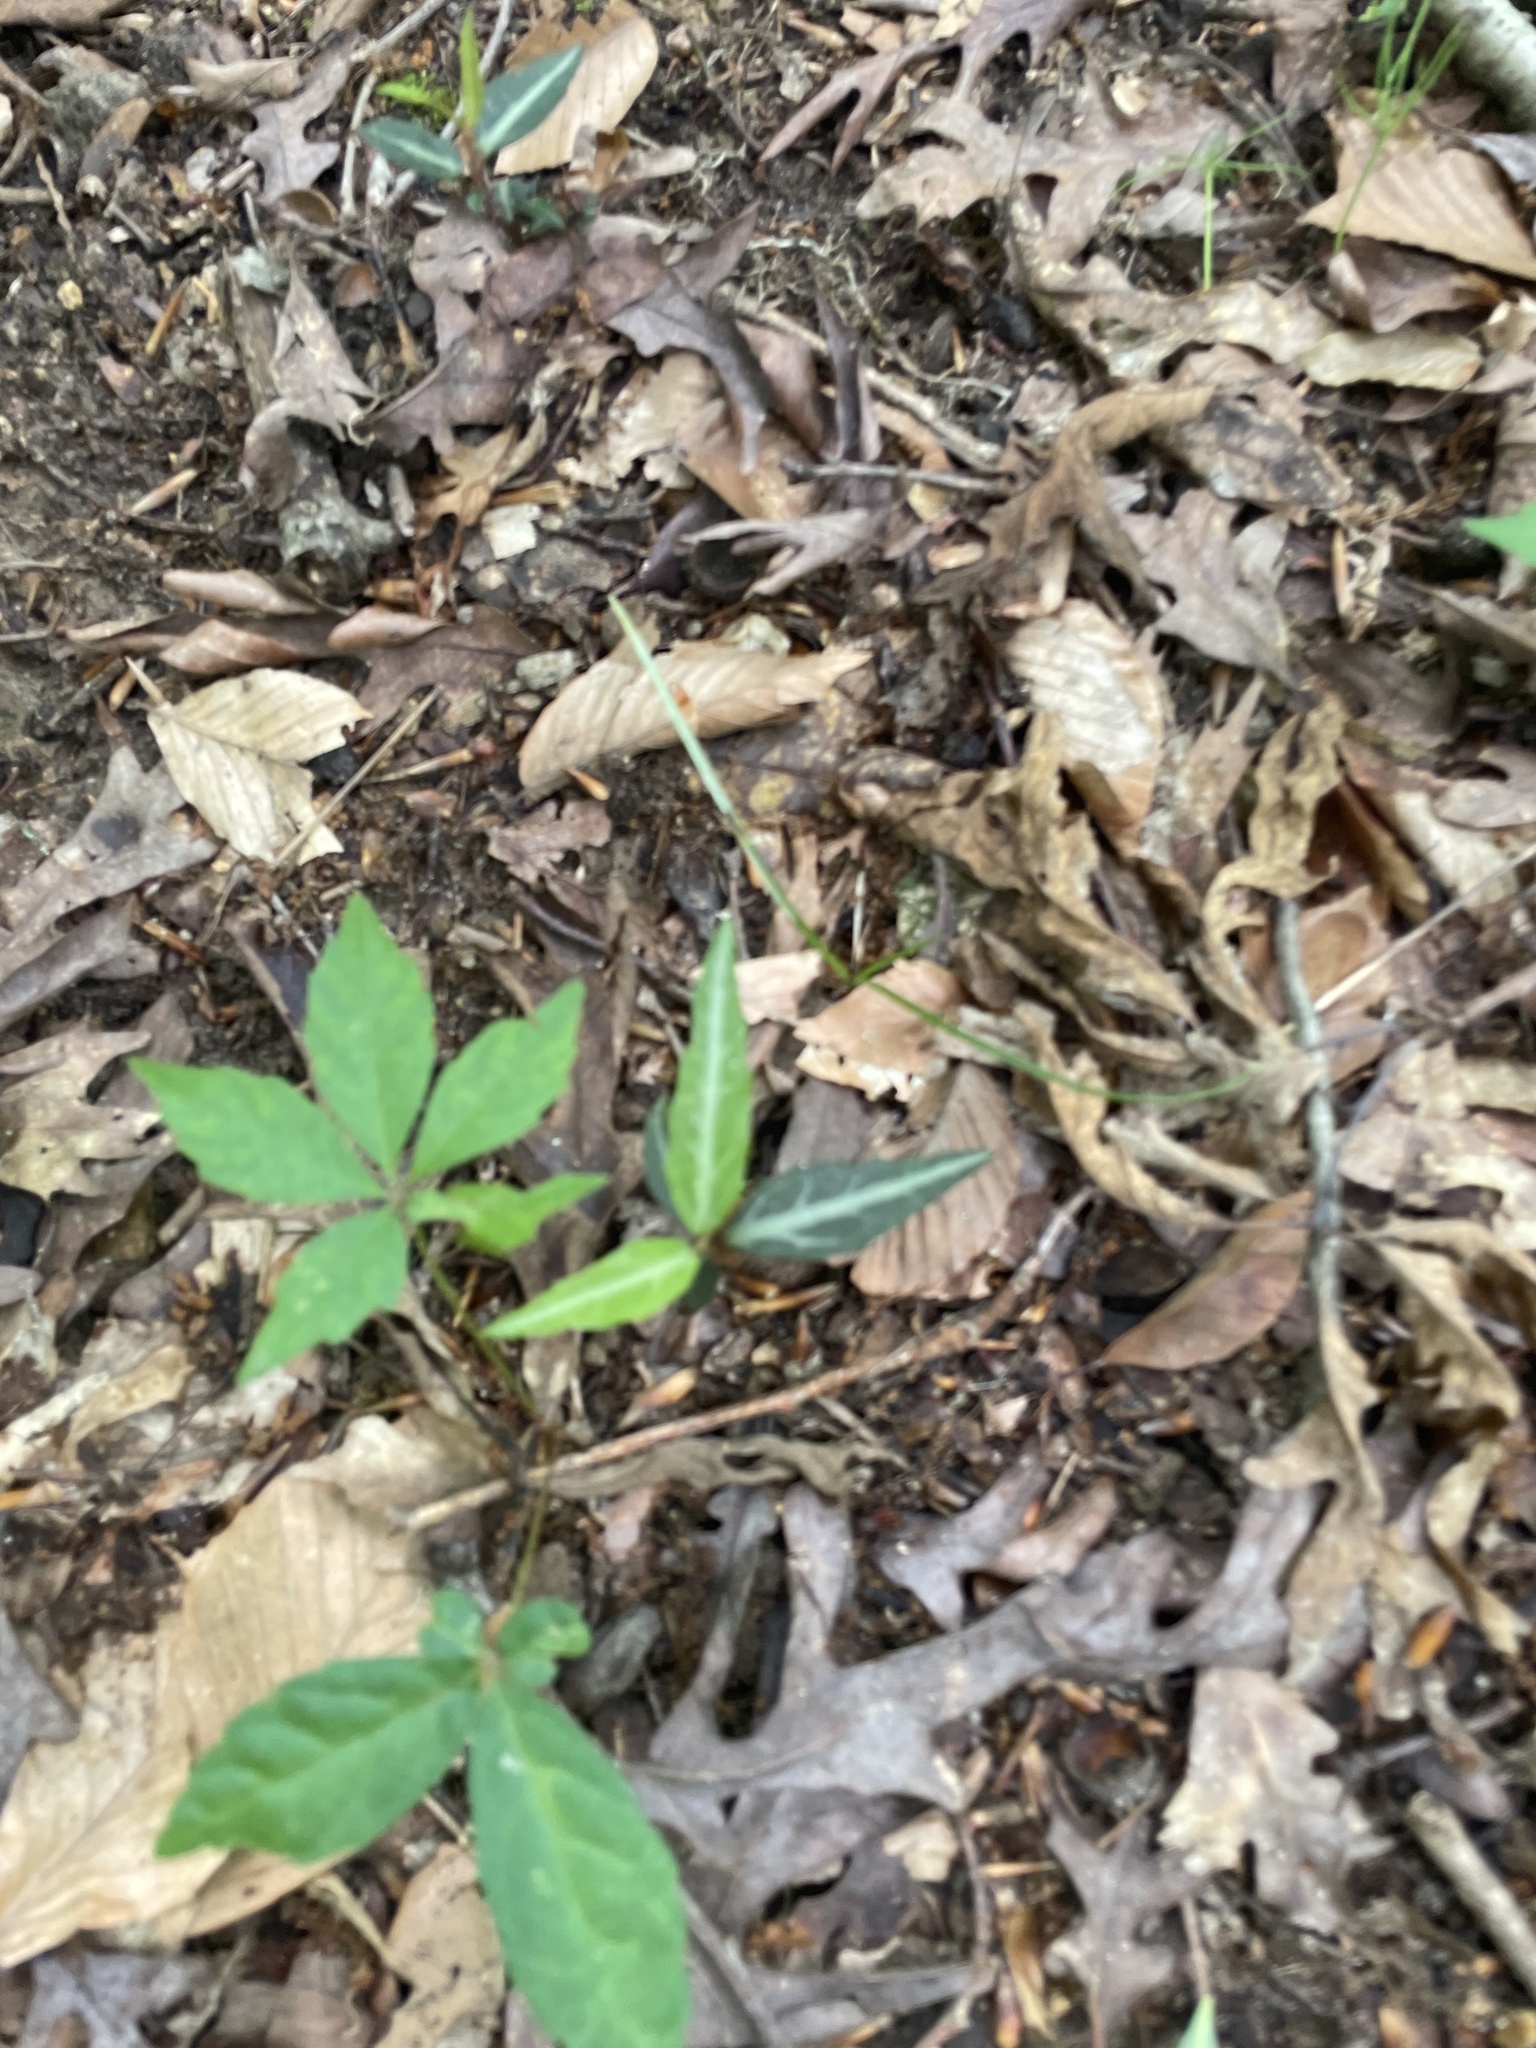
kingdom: Plantae
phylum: Tracheophyta
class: Magnoliopsida
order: Ericales
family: Ericaceae
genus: Chimaphila
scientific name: Chimaphila maculata
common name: Spotted pipsissewa
